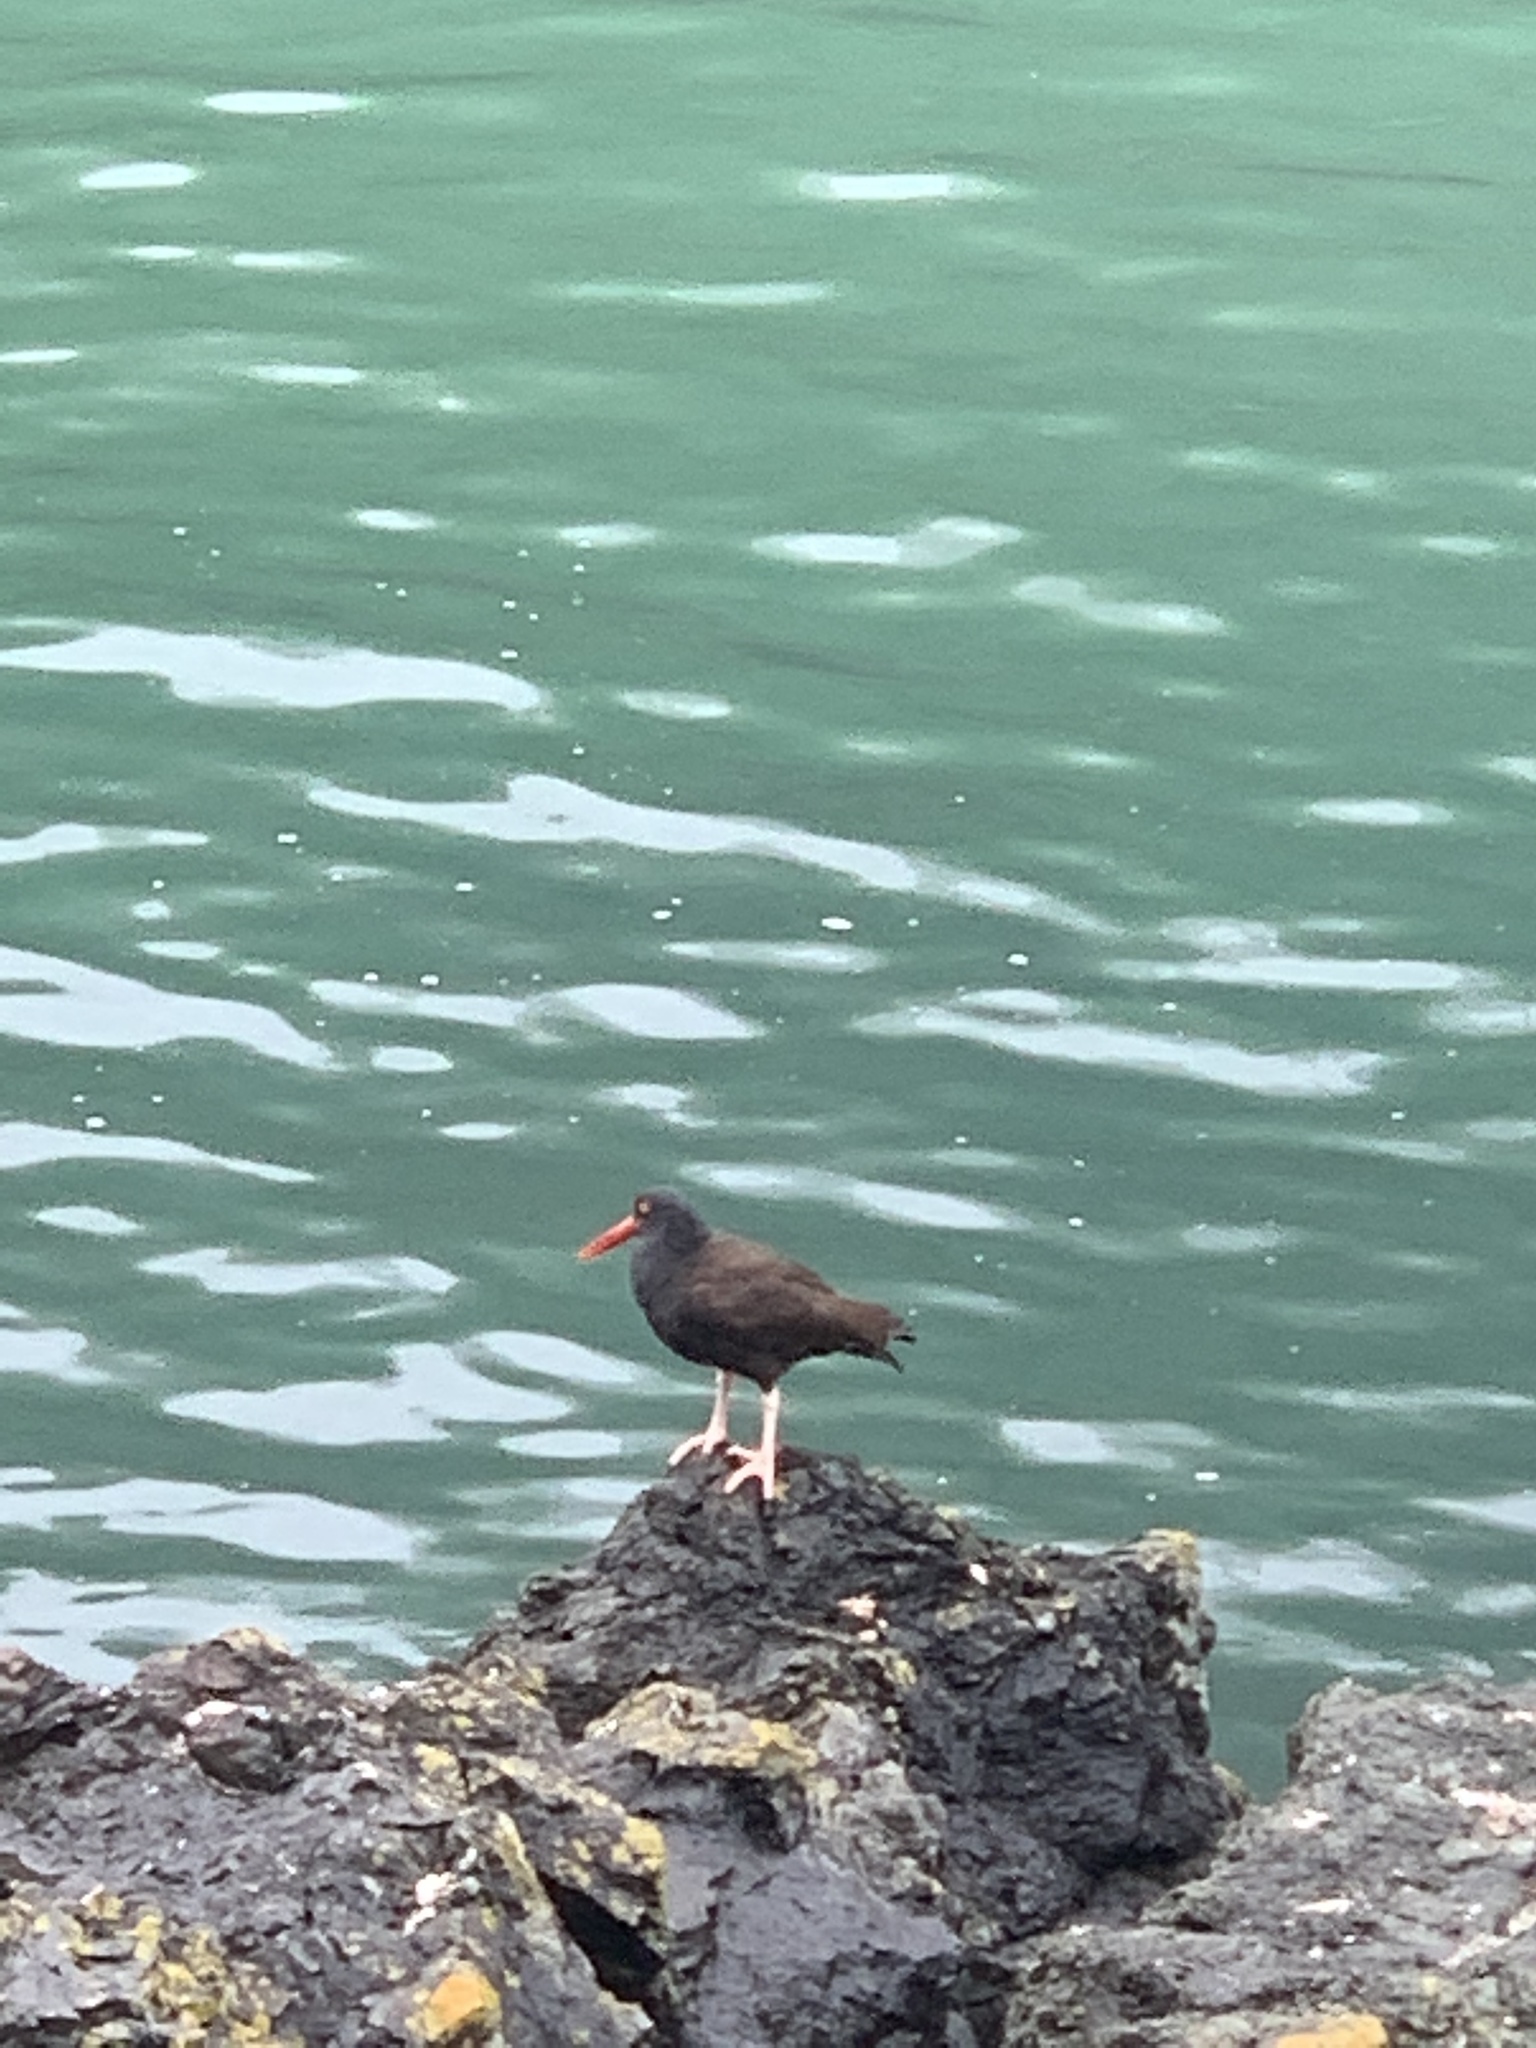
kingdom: Animalia
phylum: Chordata
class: Aves
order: Charadriiformes
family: Haematopodidae
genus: Haematopus
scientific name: Haematopus bachmani
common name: Black oystercatcher
